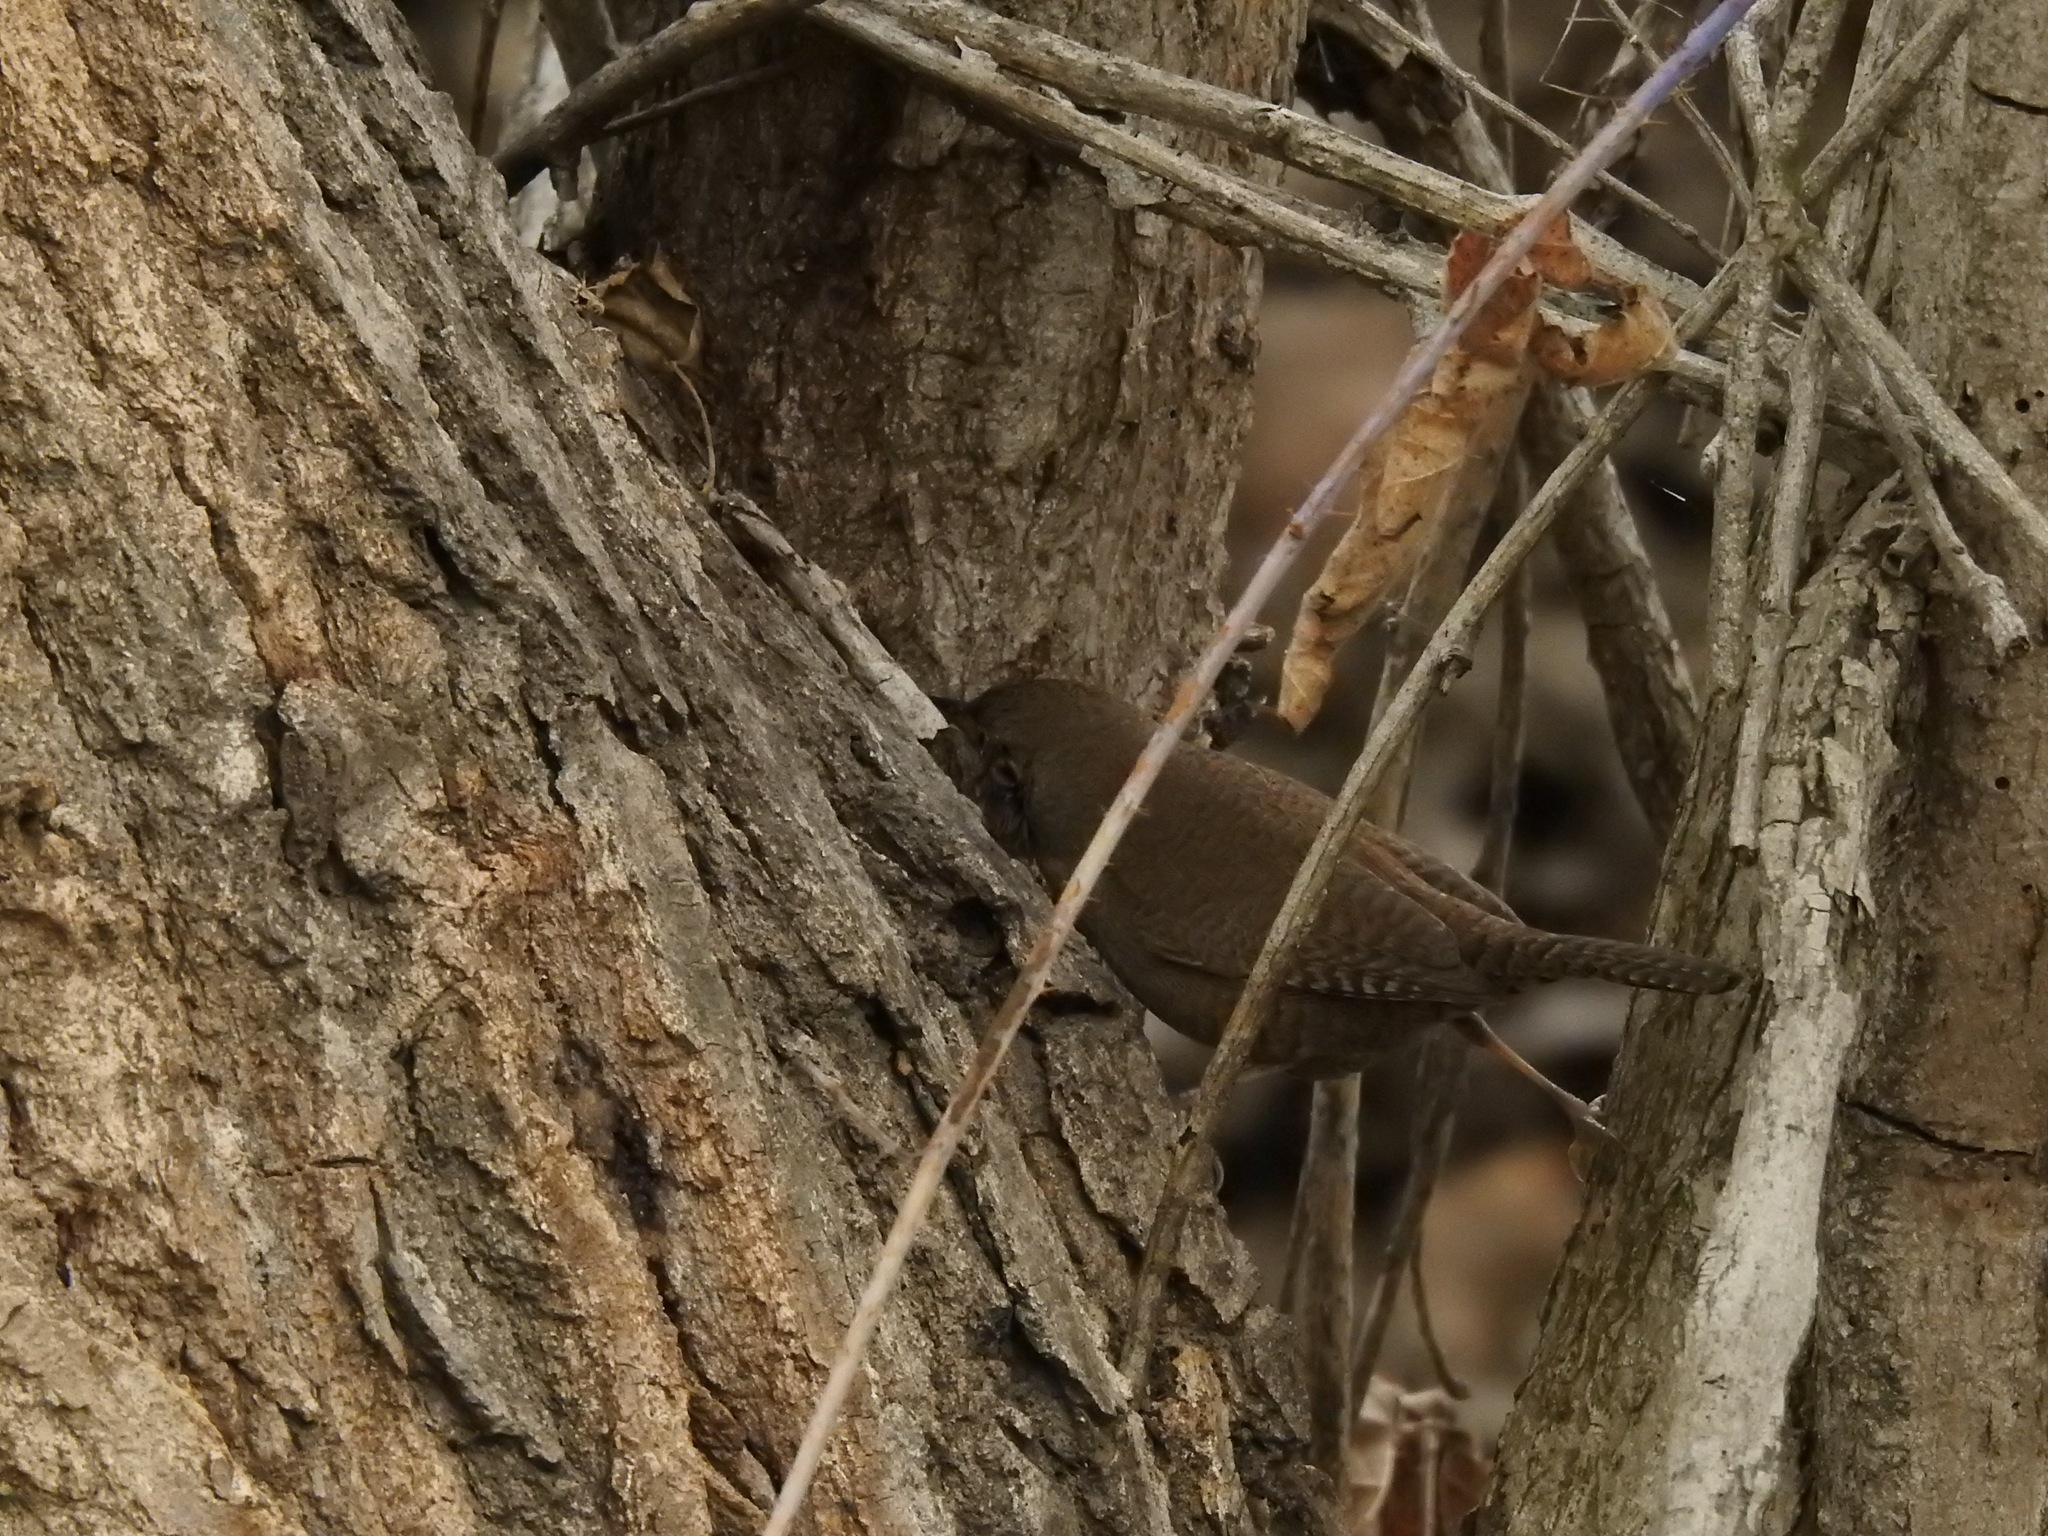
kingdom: Animalia
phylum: Chordata
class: Aves
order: Passeriformes
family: Troglodytidae
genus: Troglodytes
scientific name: Troglodytes aedon
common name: House wren
